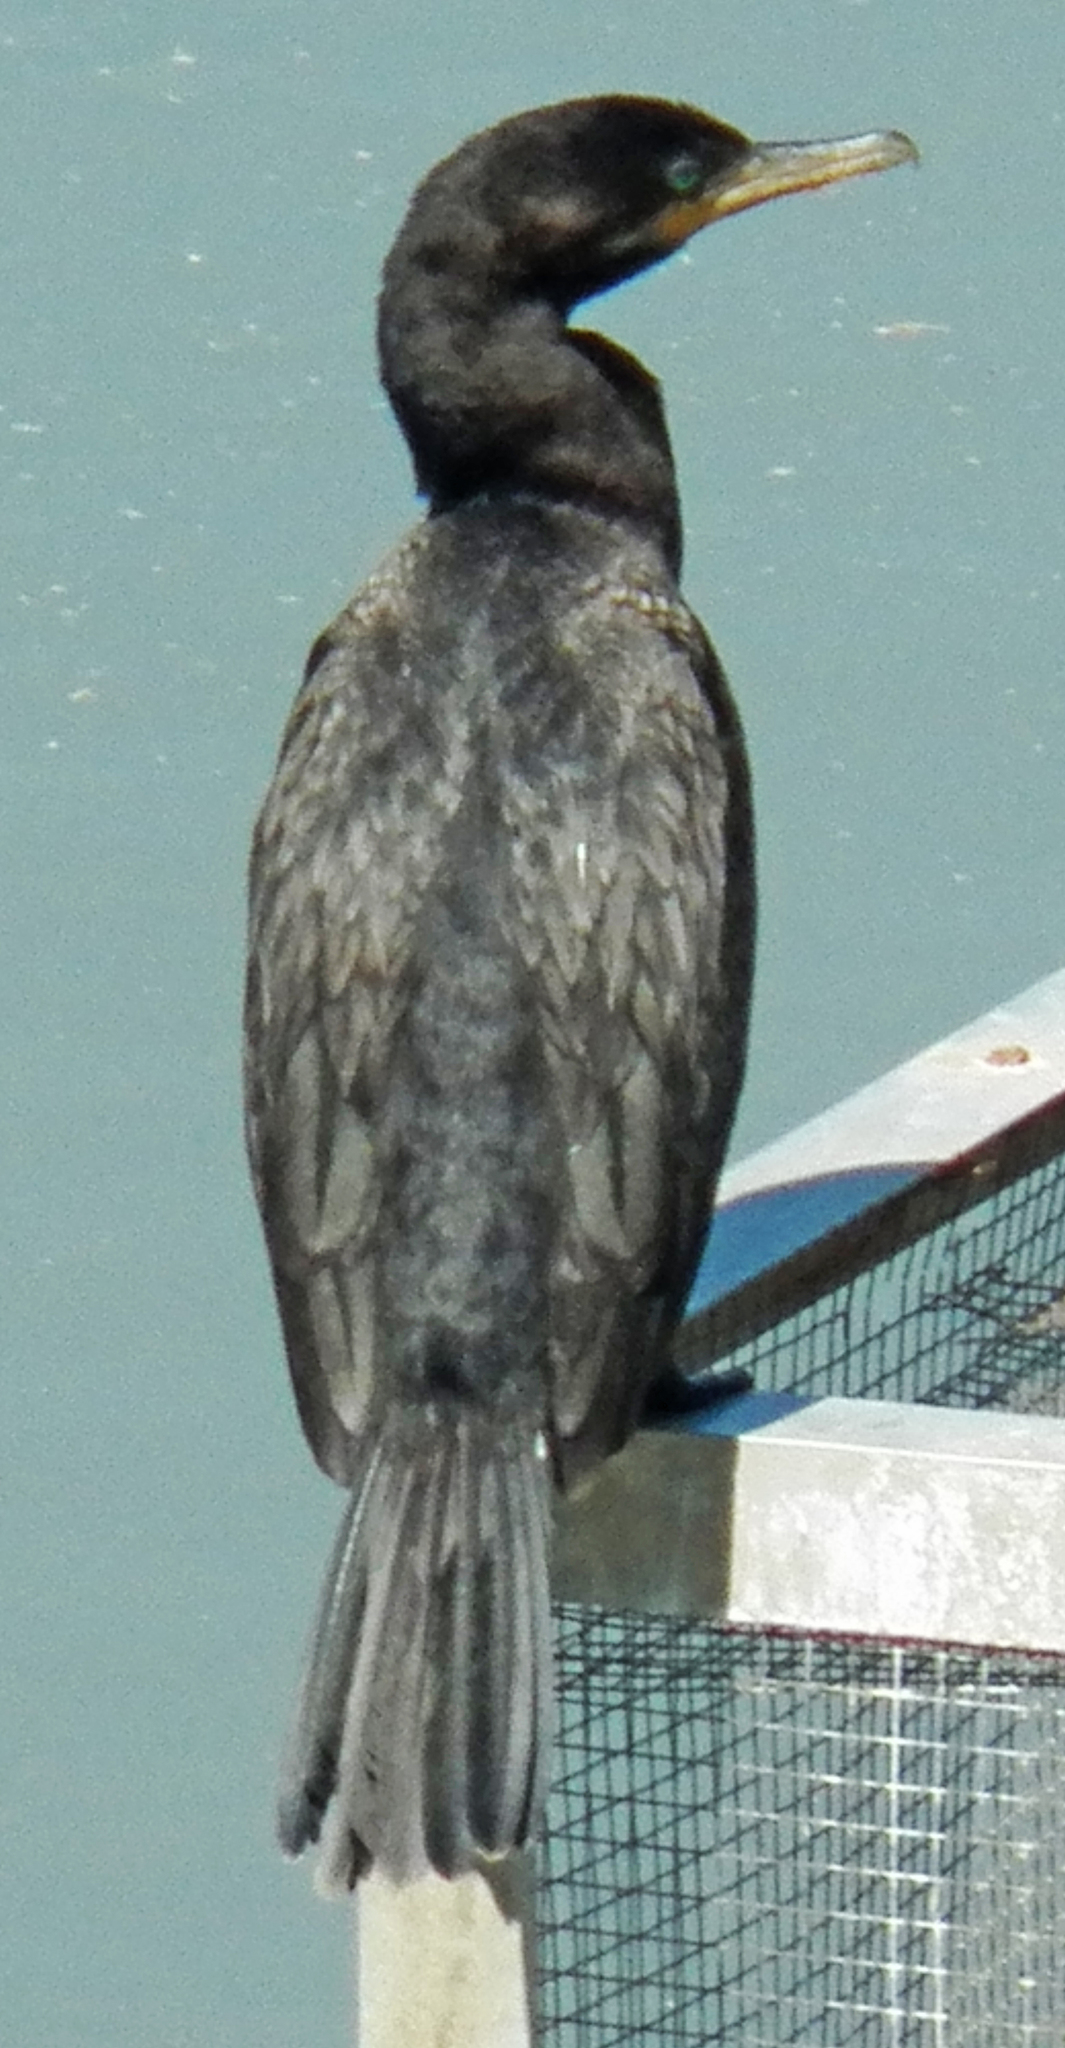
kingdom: Animalia
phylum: Chordata
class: Aves
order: Suliformes
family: Phalacrocoracidae
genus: Phalacrocorax
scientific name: Phalacrocorax brasilianus
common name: Neotropic cormorant
